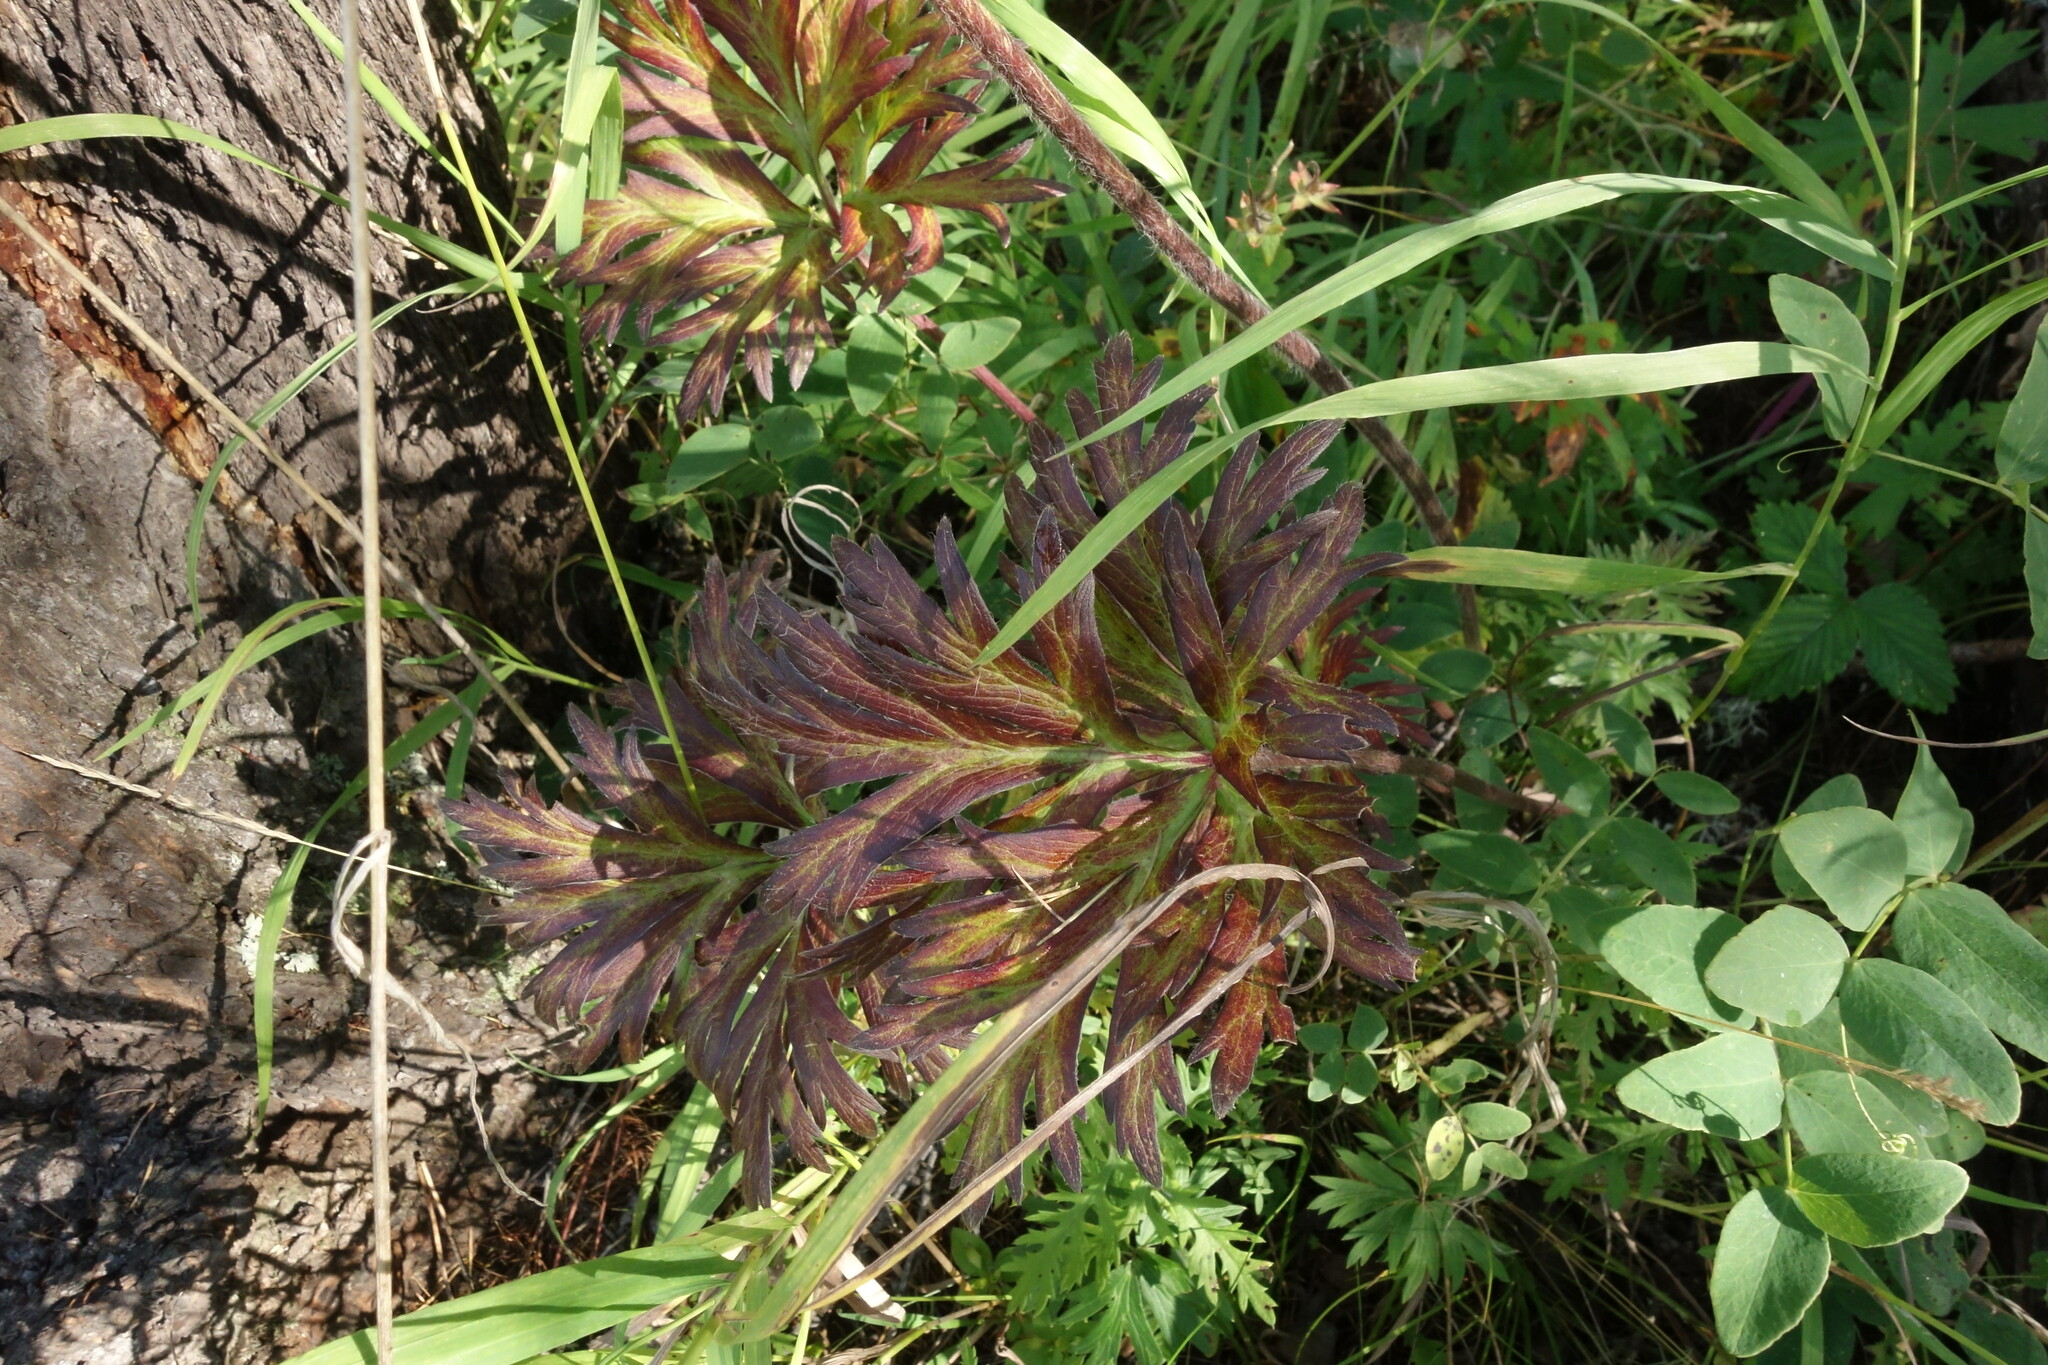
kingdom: Plantae
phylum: Tracheophyta
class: Magnoliopsida
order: Ranunculales
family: Ranunculaceae
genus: Anemonastrum
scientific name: Anemonastrum narcissiflorum
